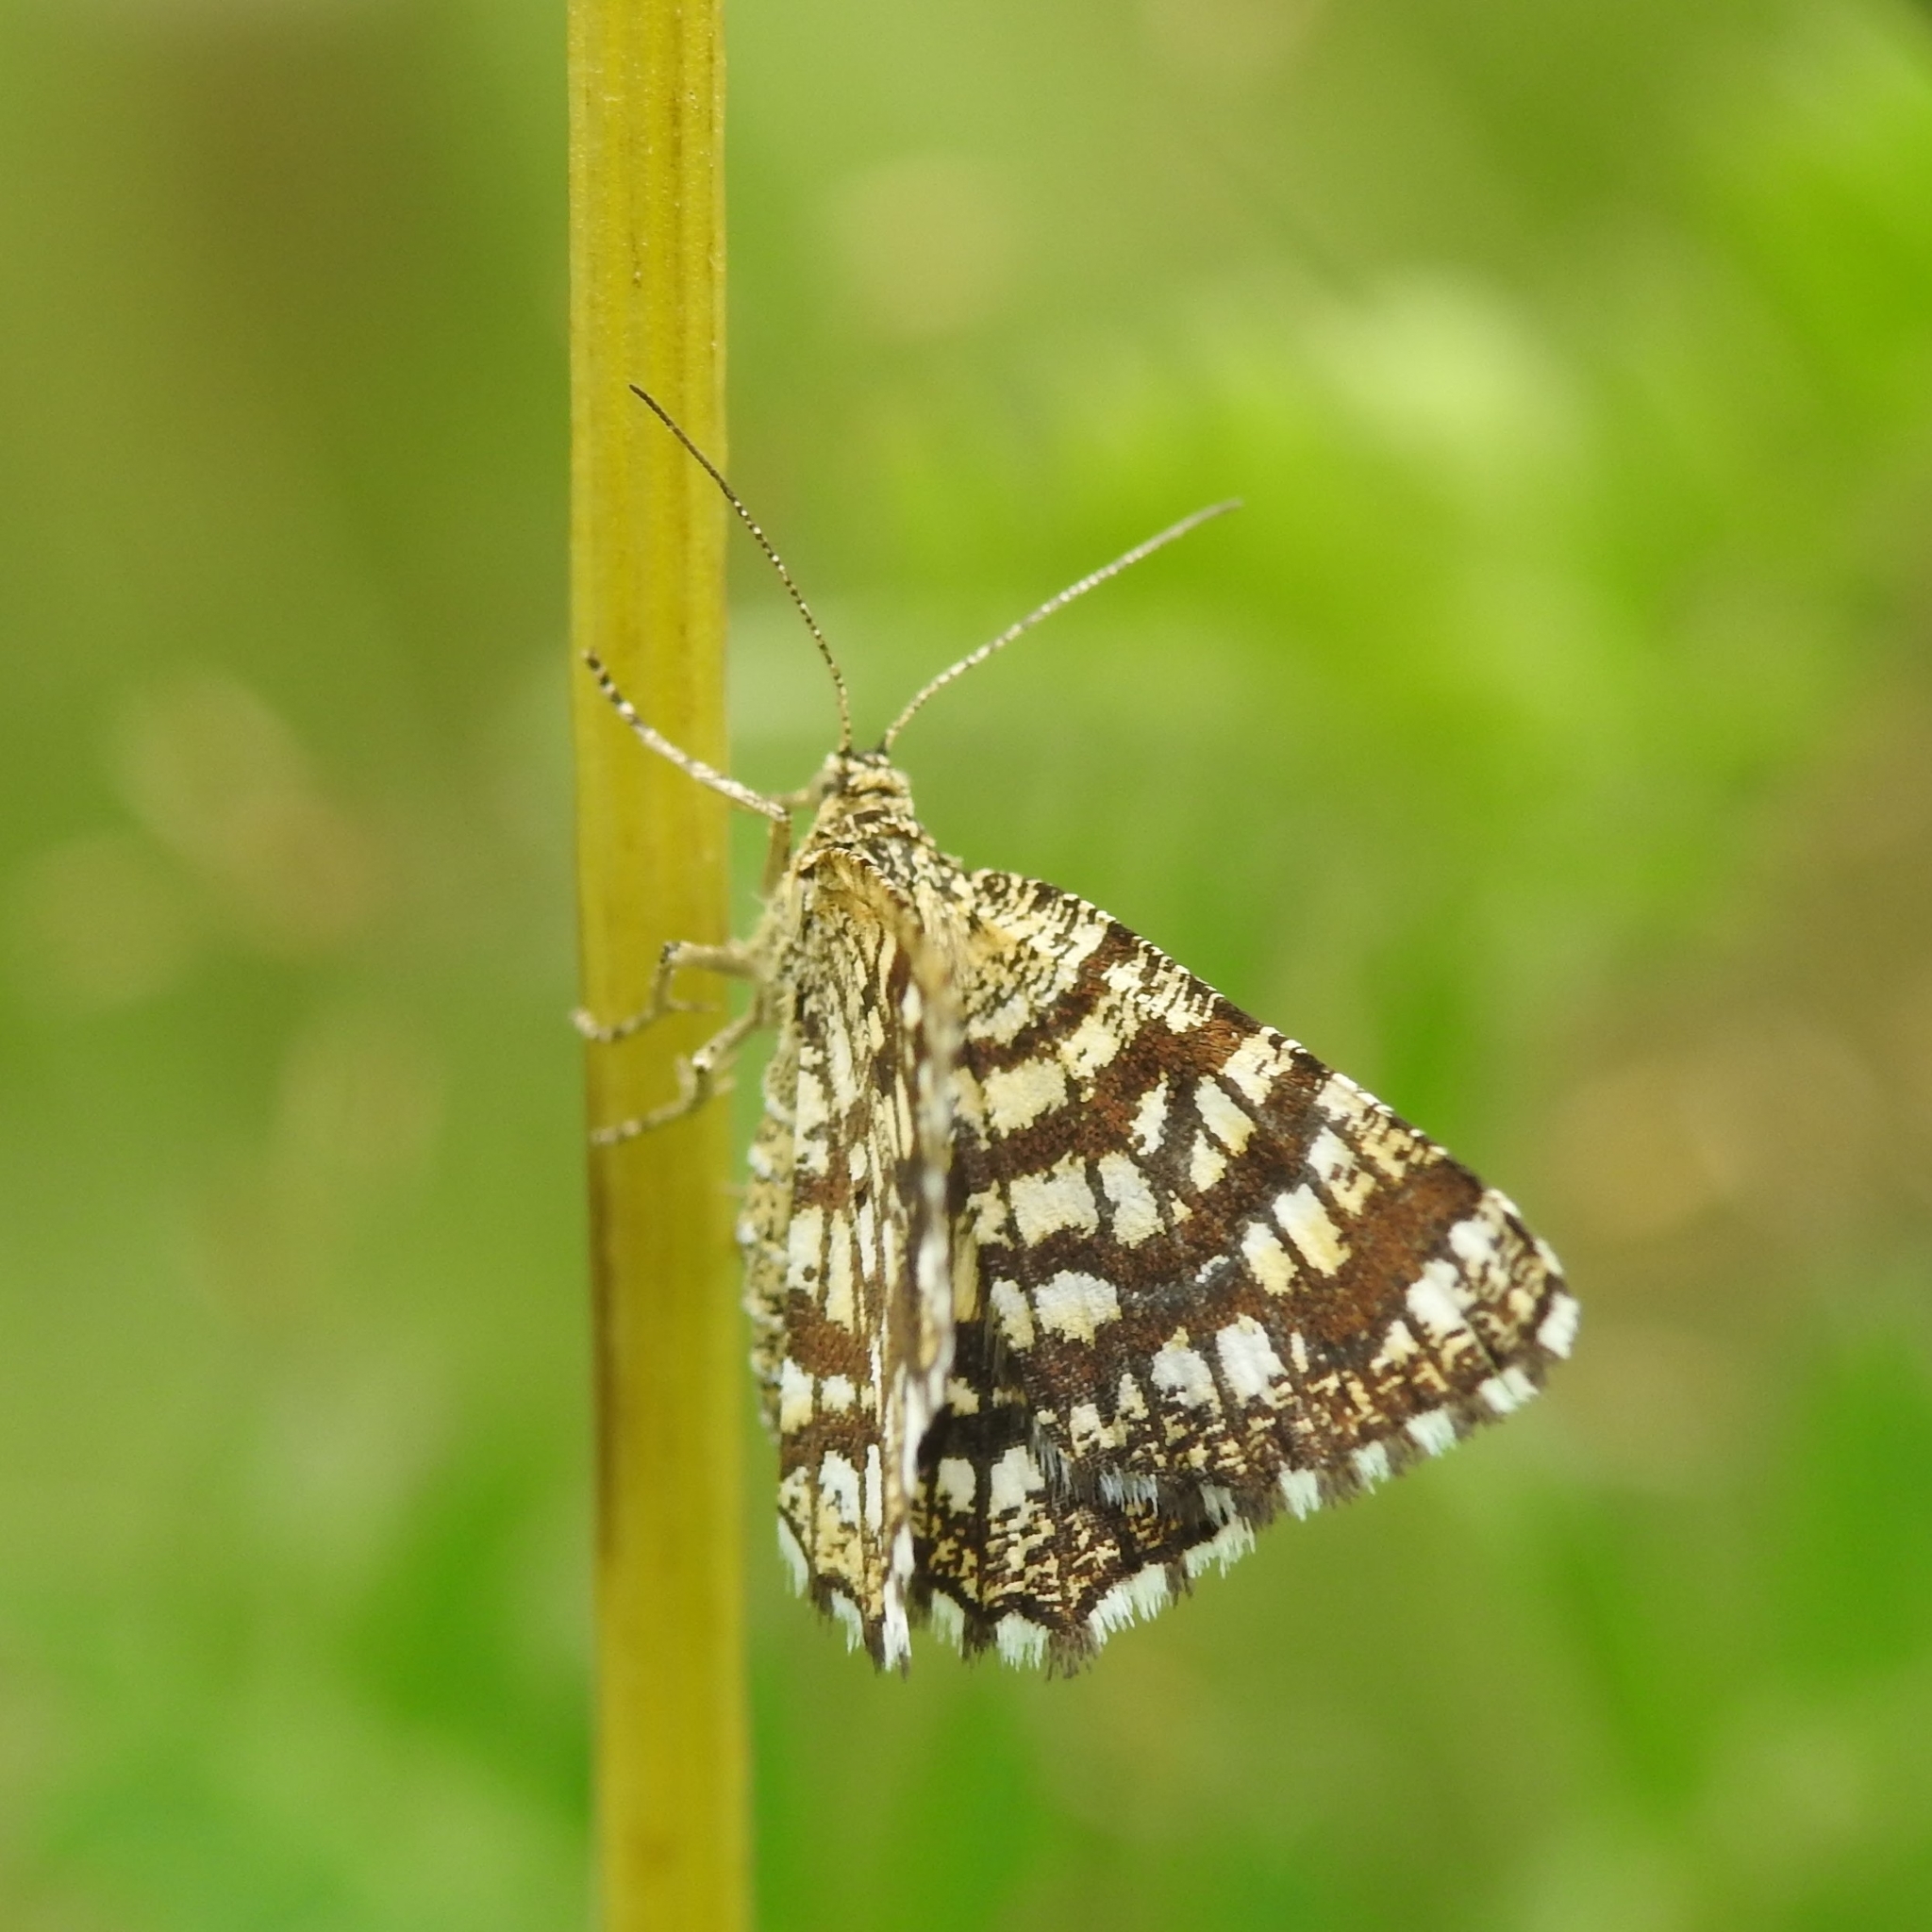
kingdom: Animalia
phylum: Arthropoda
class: Insecta
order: Lepidoptera
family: Geometridae
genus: Chiasmia
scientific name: Chiasmia clathrata
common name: Latticed heath
